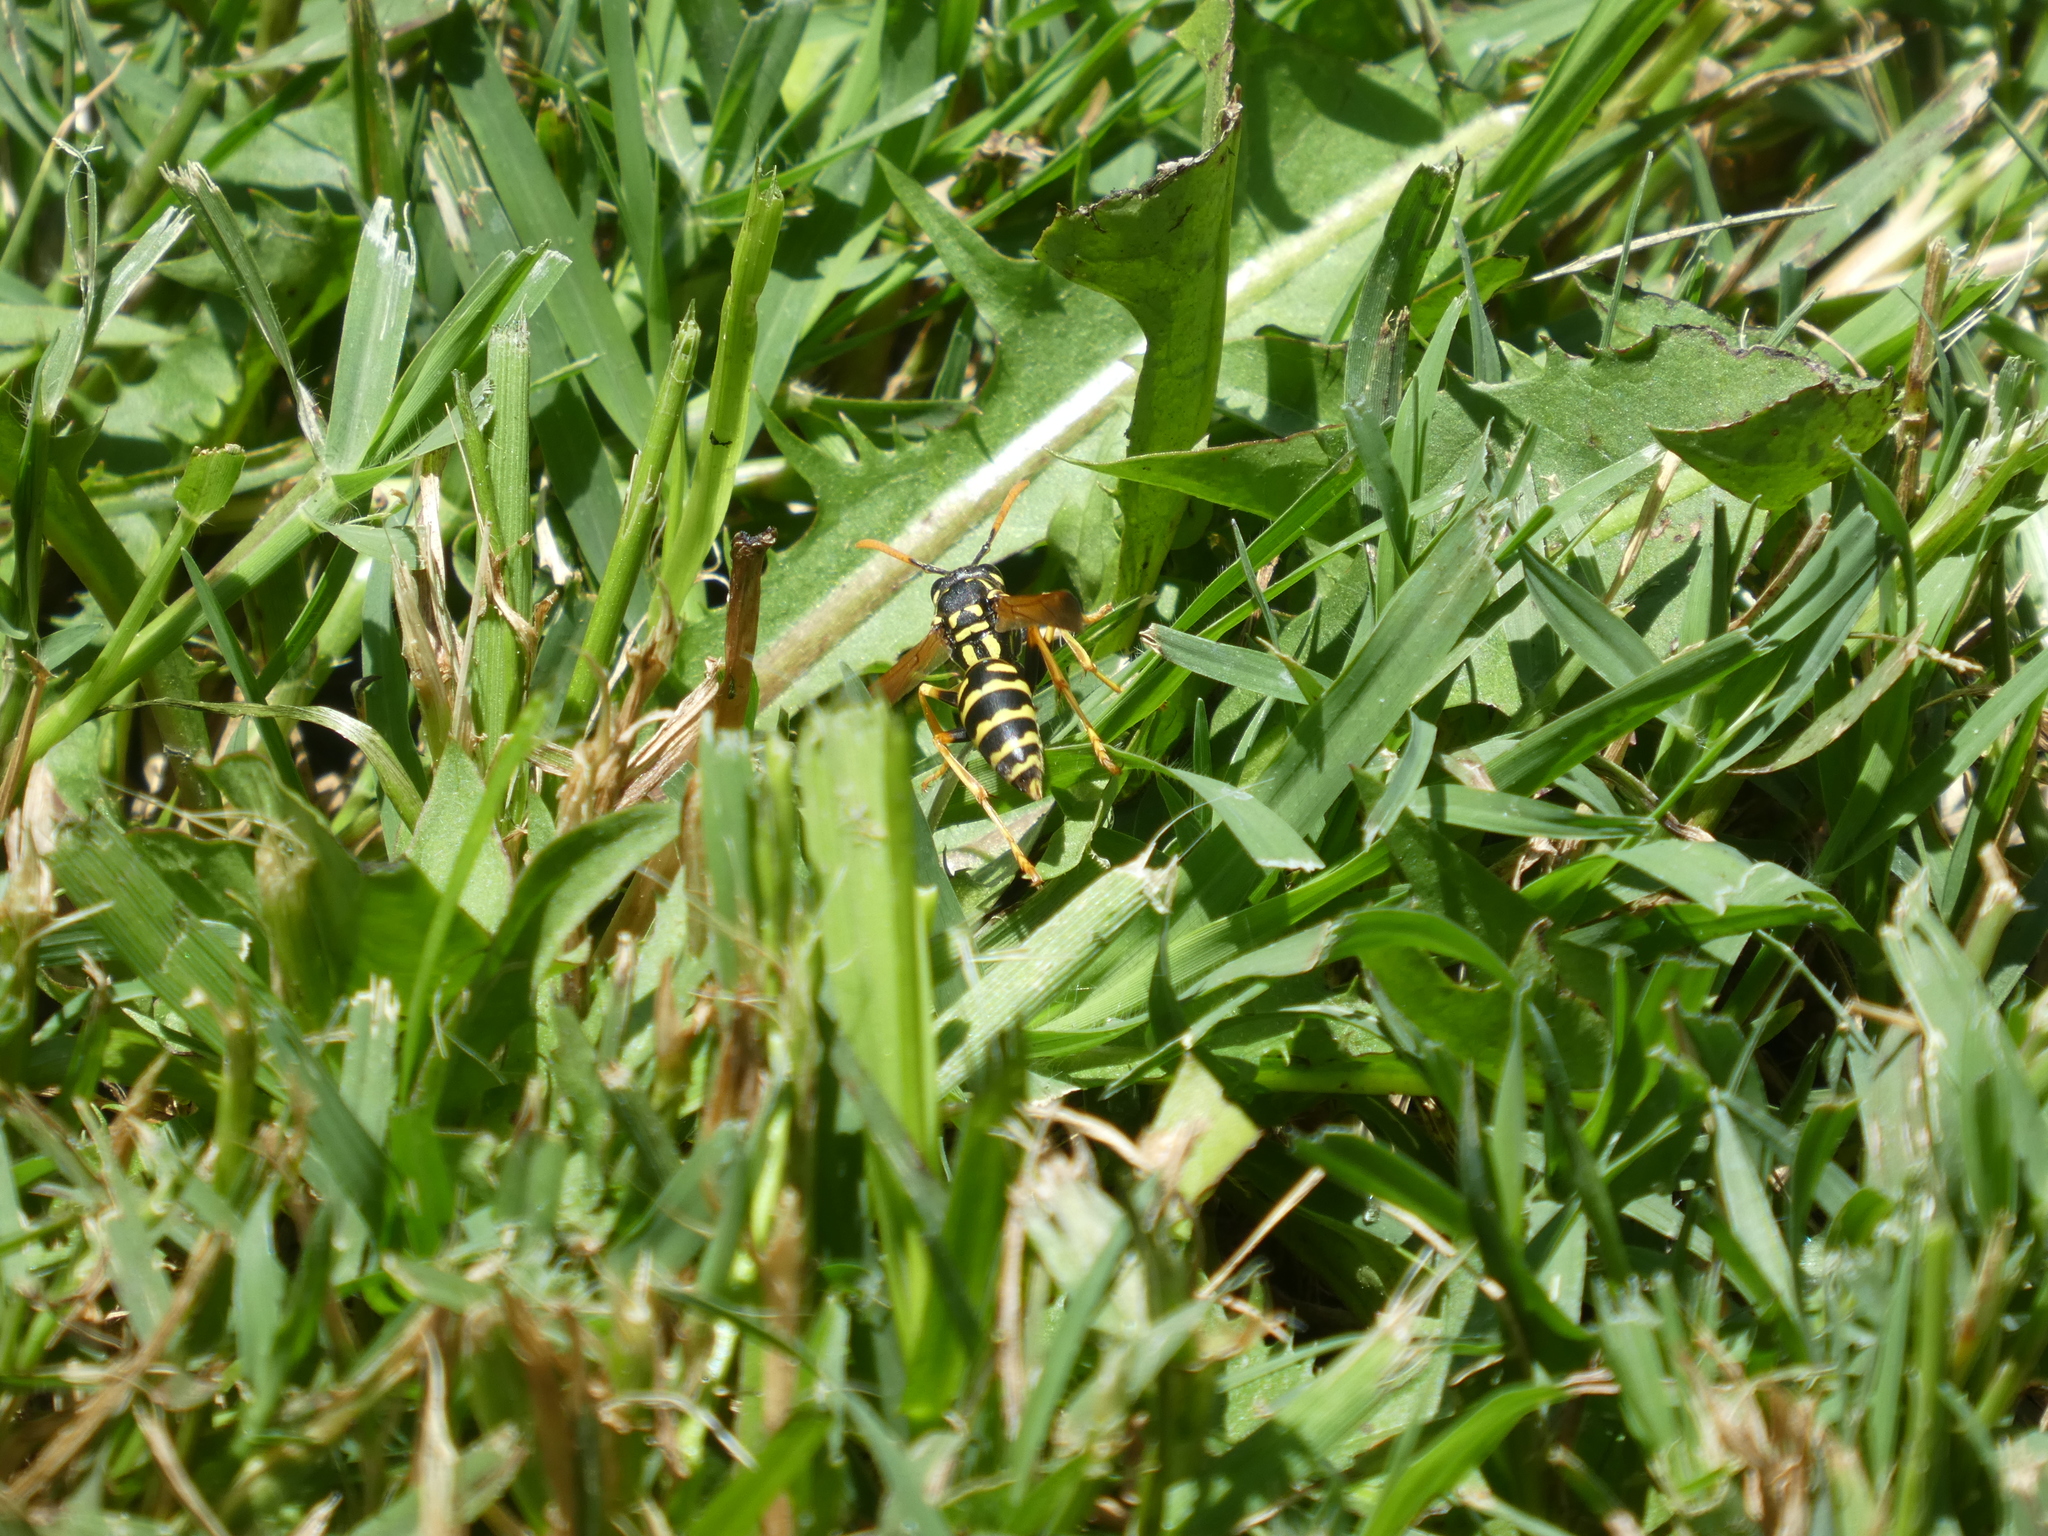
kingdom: Animalia
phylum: Arthropoda
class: Insecta
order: Hymenoptera
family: Eumenidae
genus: Polistes
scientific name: Polistes dominula
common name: Paper wasp
